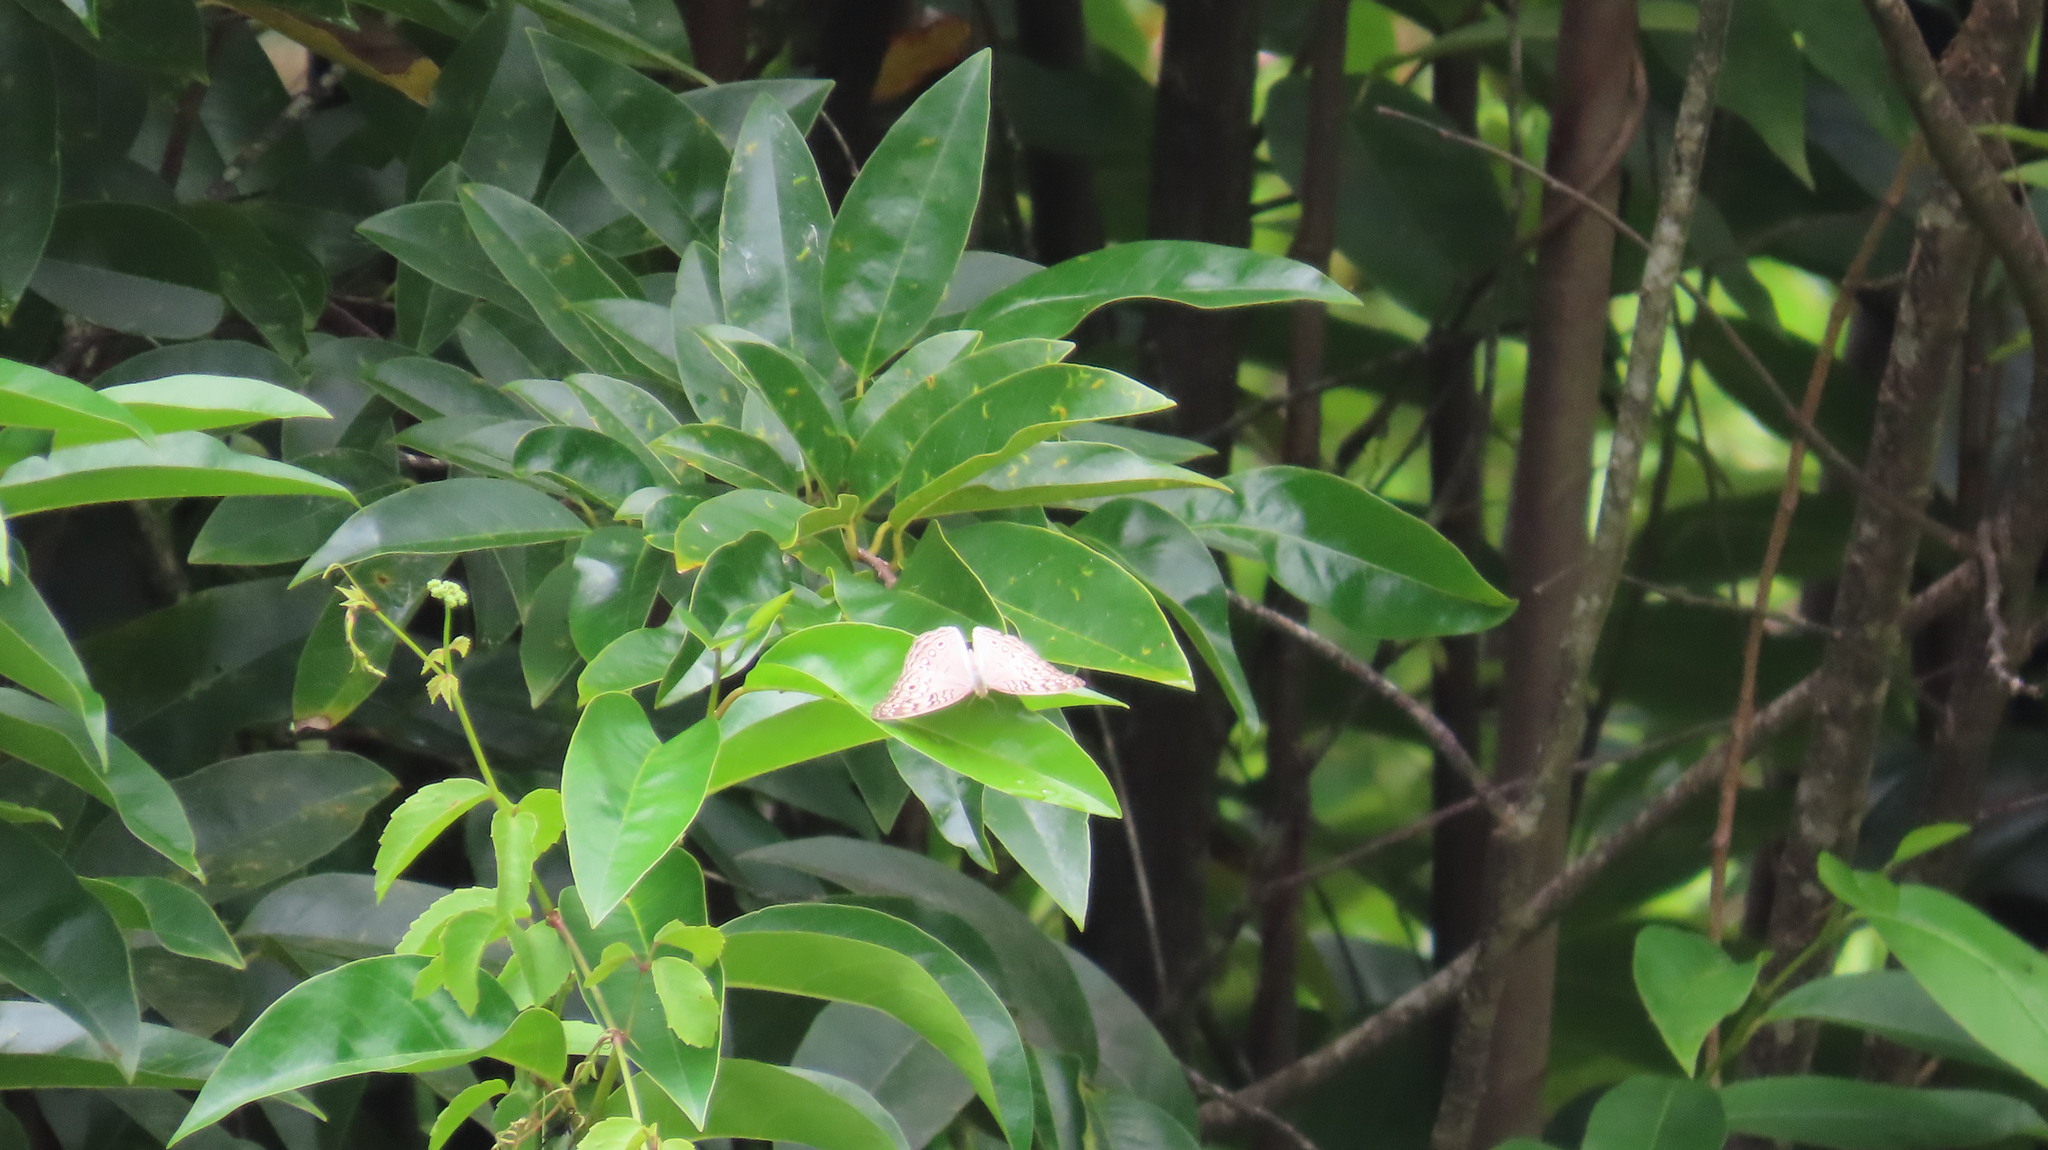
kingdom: Animalia
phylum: Arthropoda
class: Insecta
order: Lepidoptera
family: Nymphalidae
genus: Junonia
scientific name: Junonia atlites
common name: Grey pansy
